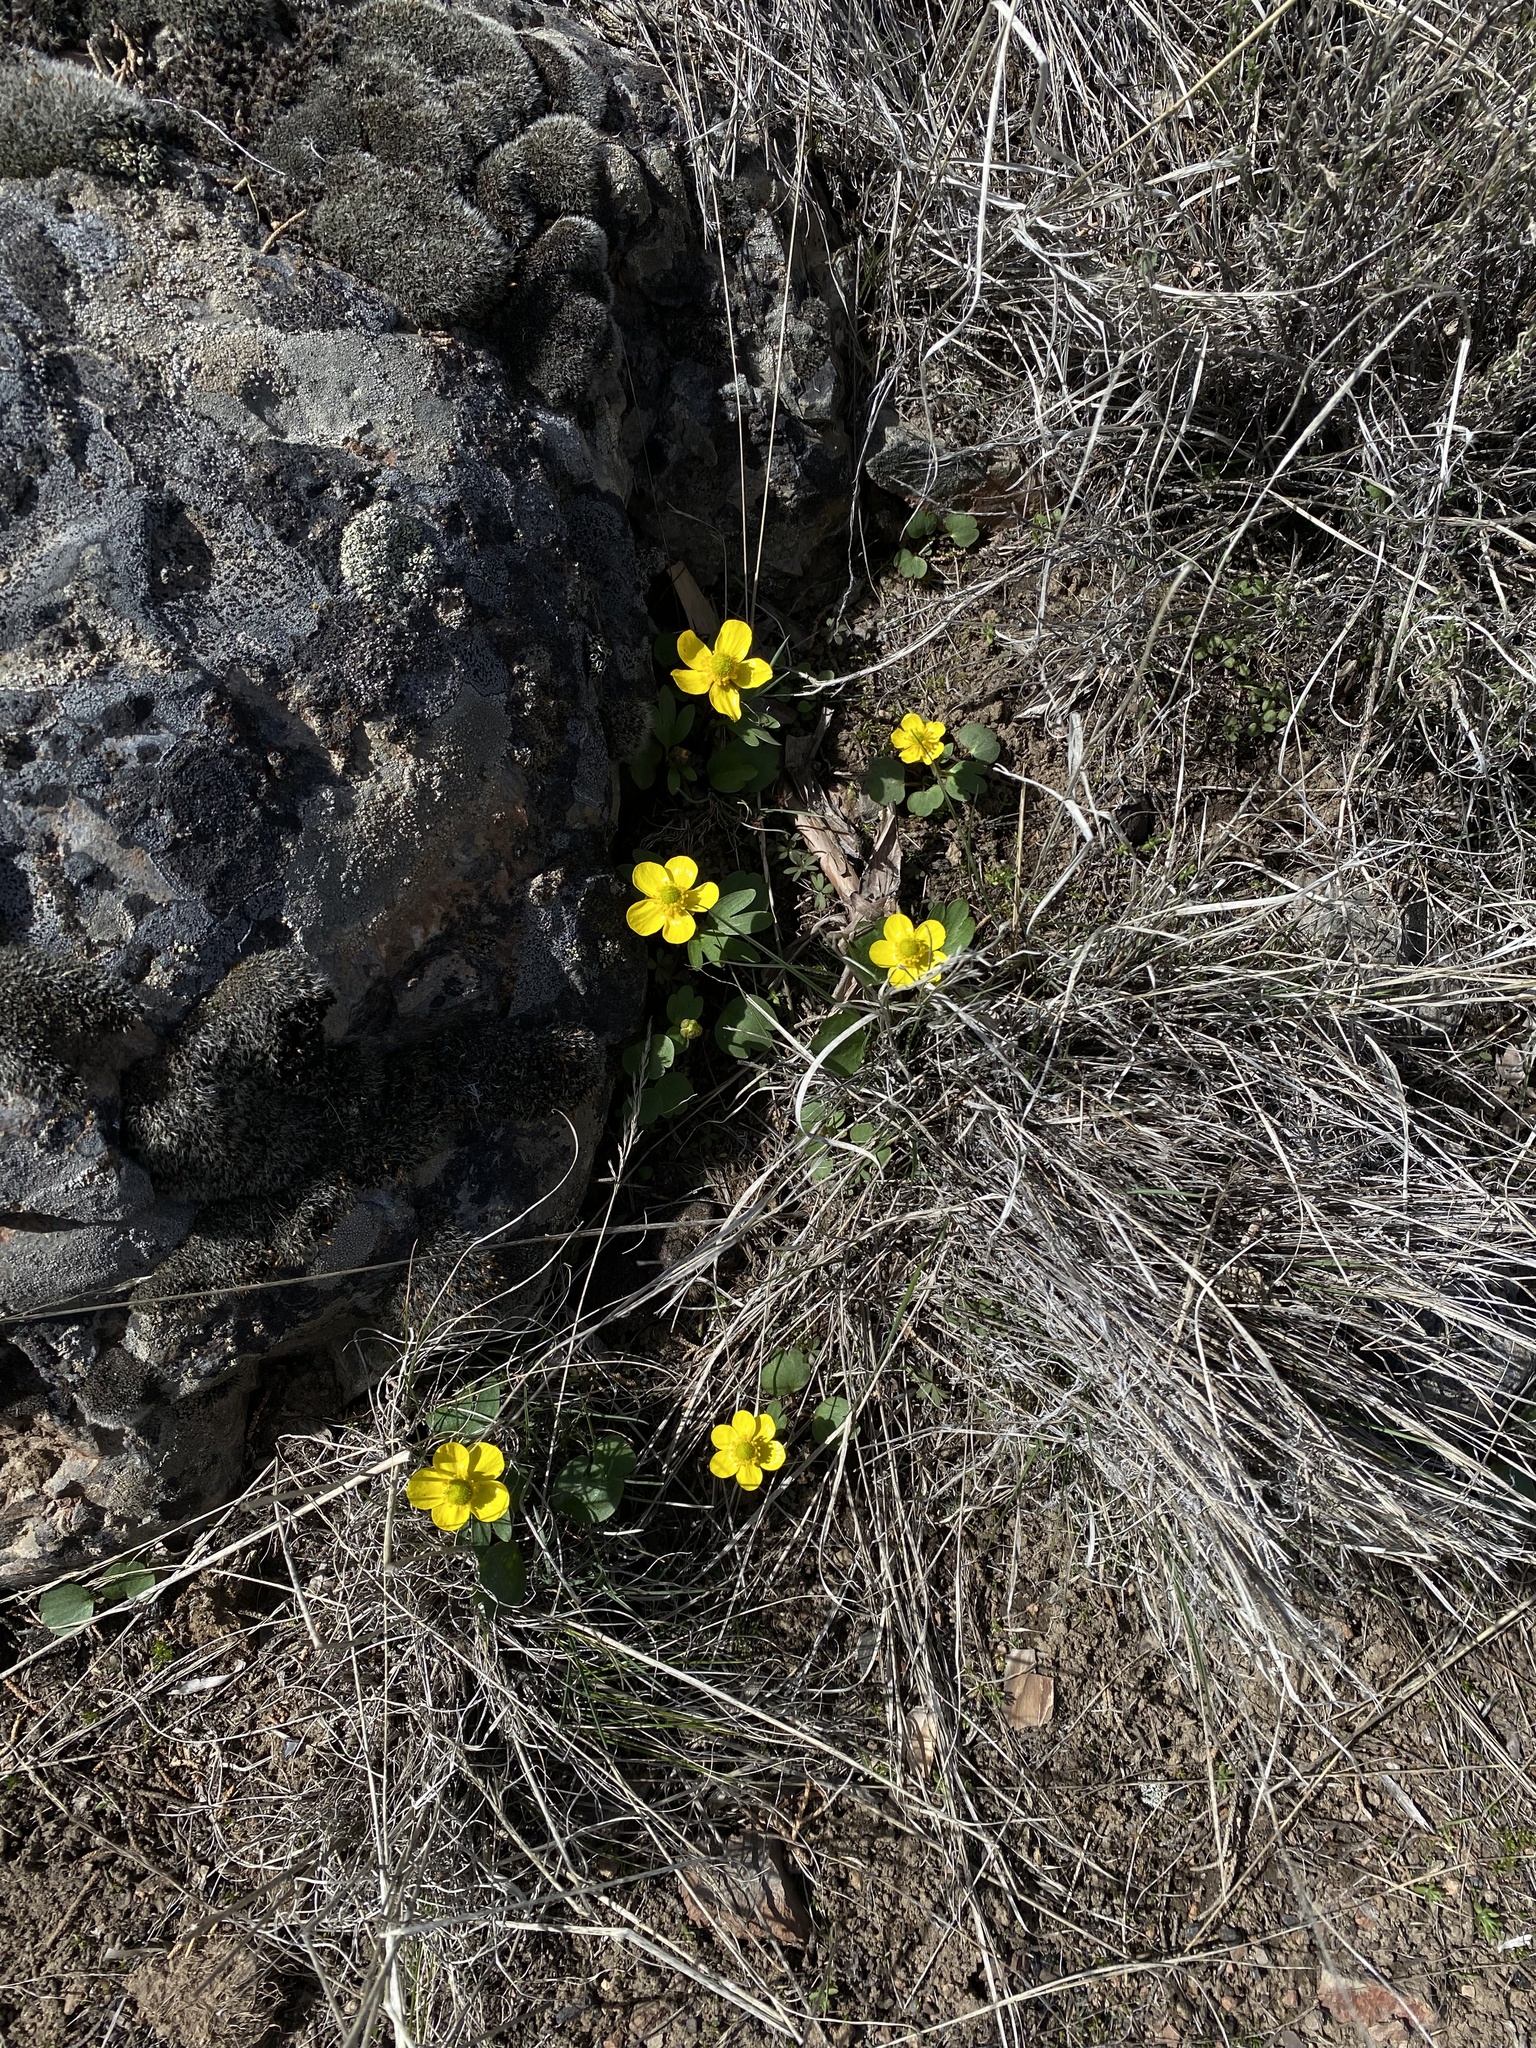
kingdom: Plantae
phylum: Tracheophyta
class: Magnoliopsida
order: Ranunculales
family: Ranunculaceae
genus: Ranunculus
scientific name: Ranunculus glaberrimus
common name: Sagebrush buttercup
